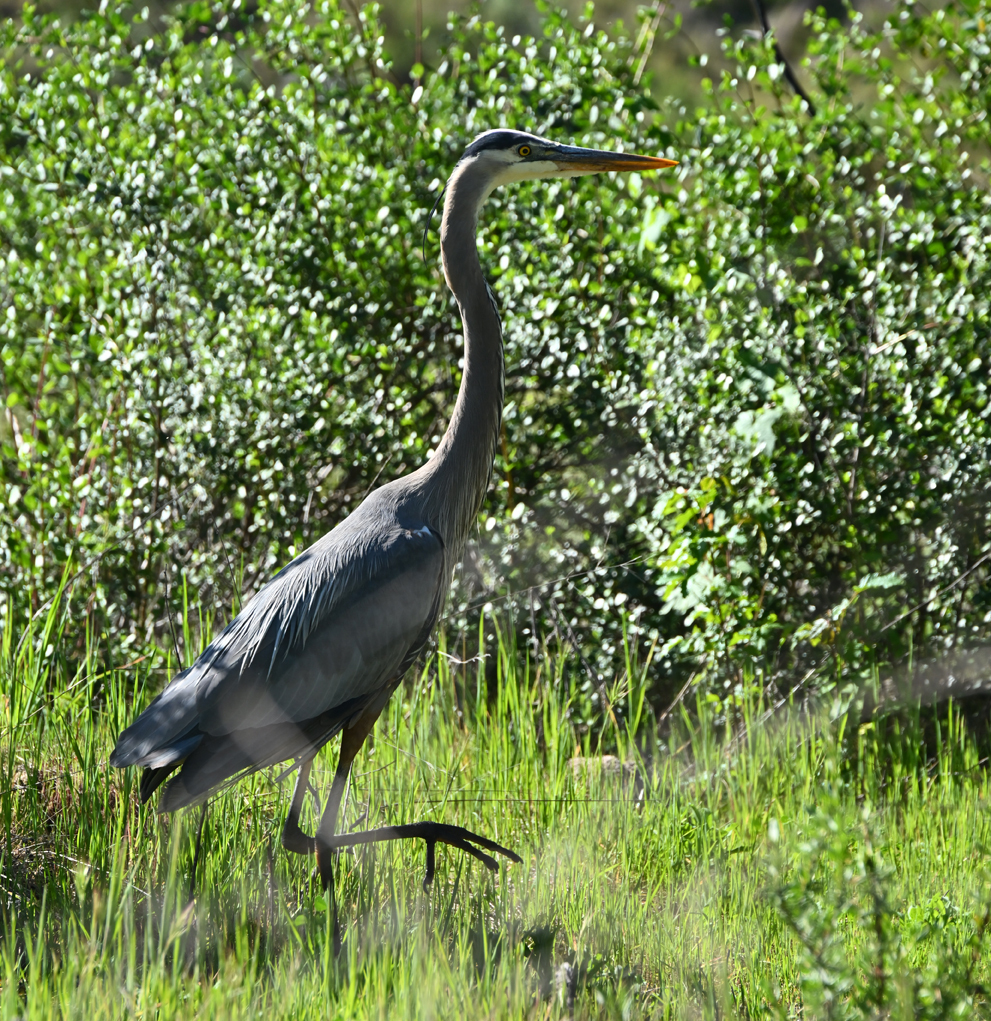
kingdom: Animalia
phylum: Chordata
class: Aves
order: Pelecaniformes
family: Ardeidae
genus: Ardea
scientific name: Ardea herodias
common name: Great blue heron
